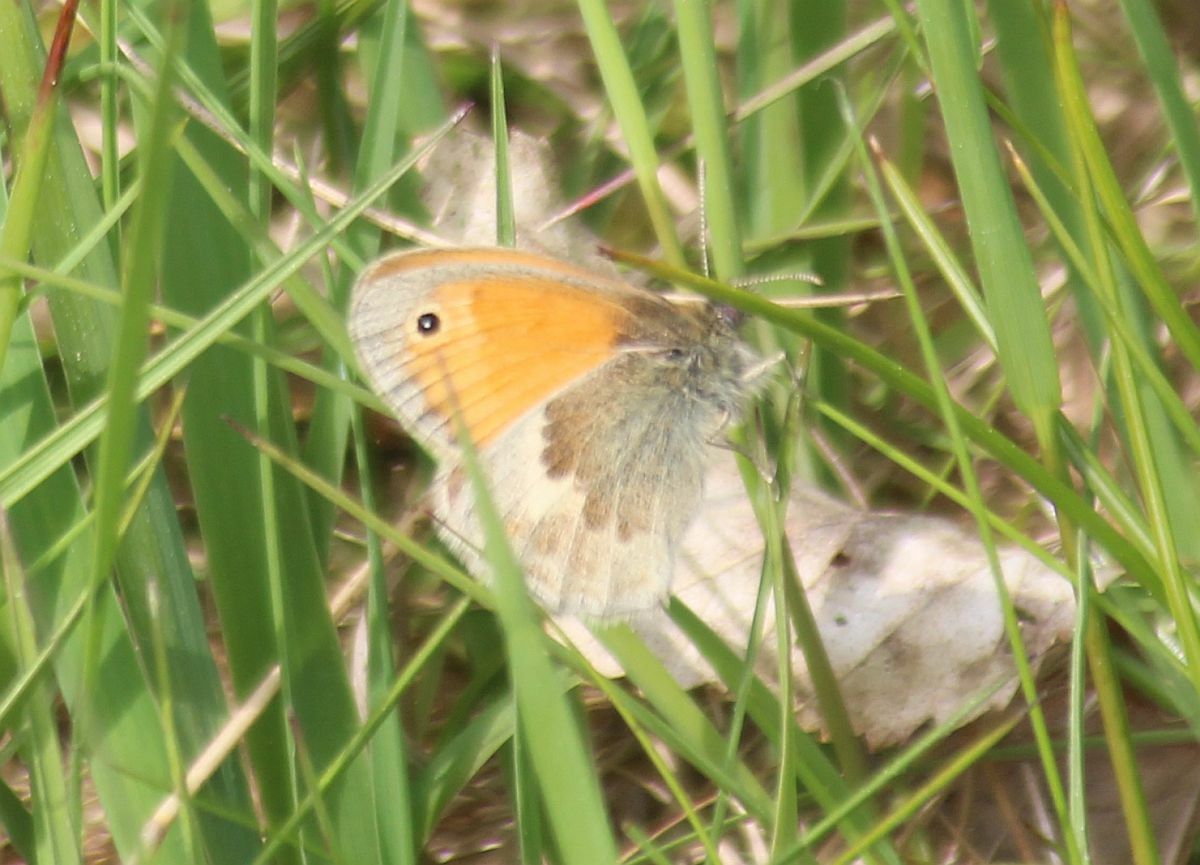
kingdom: Animalia
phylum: Arthropoda
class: Insecta
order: Lepidoptera
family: Nymphalidae
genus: Coenonympha
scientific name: Coenonympha pamphilus
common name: Small heath
